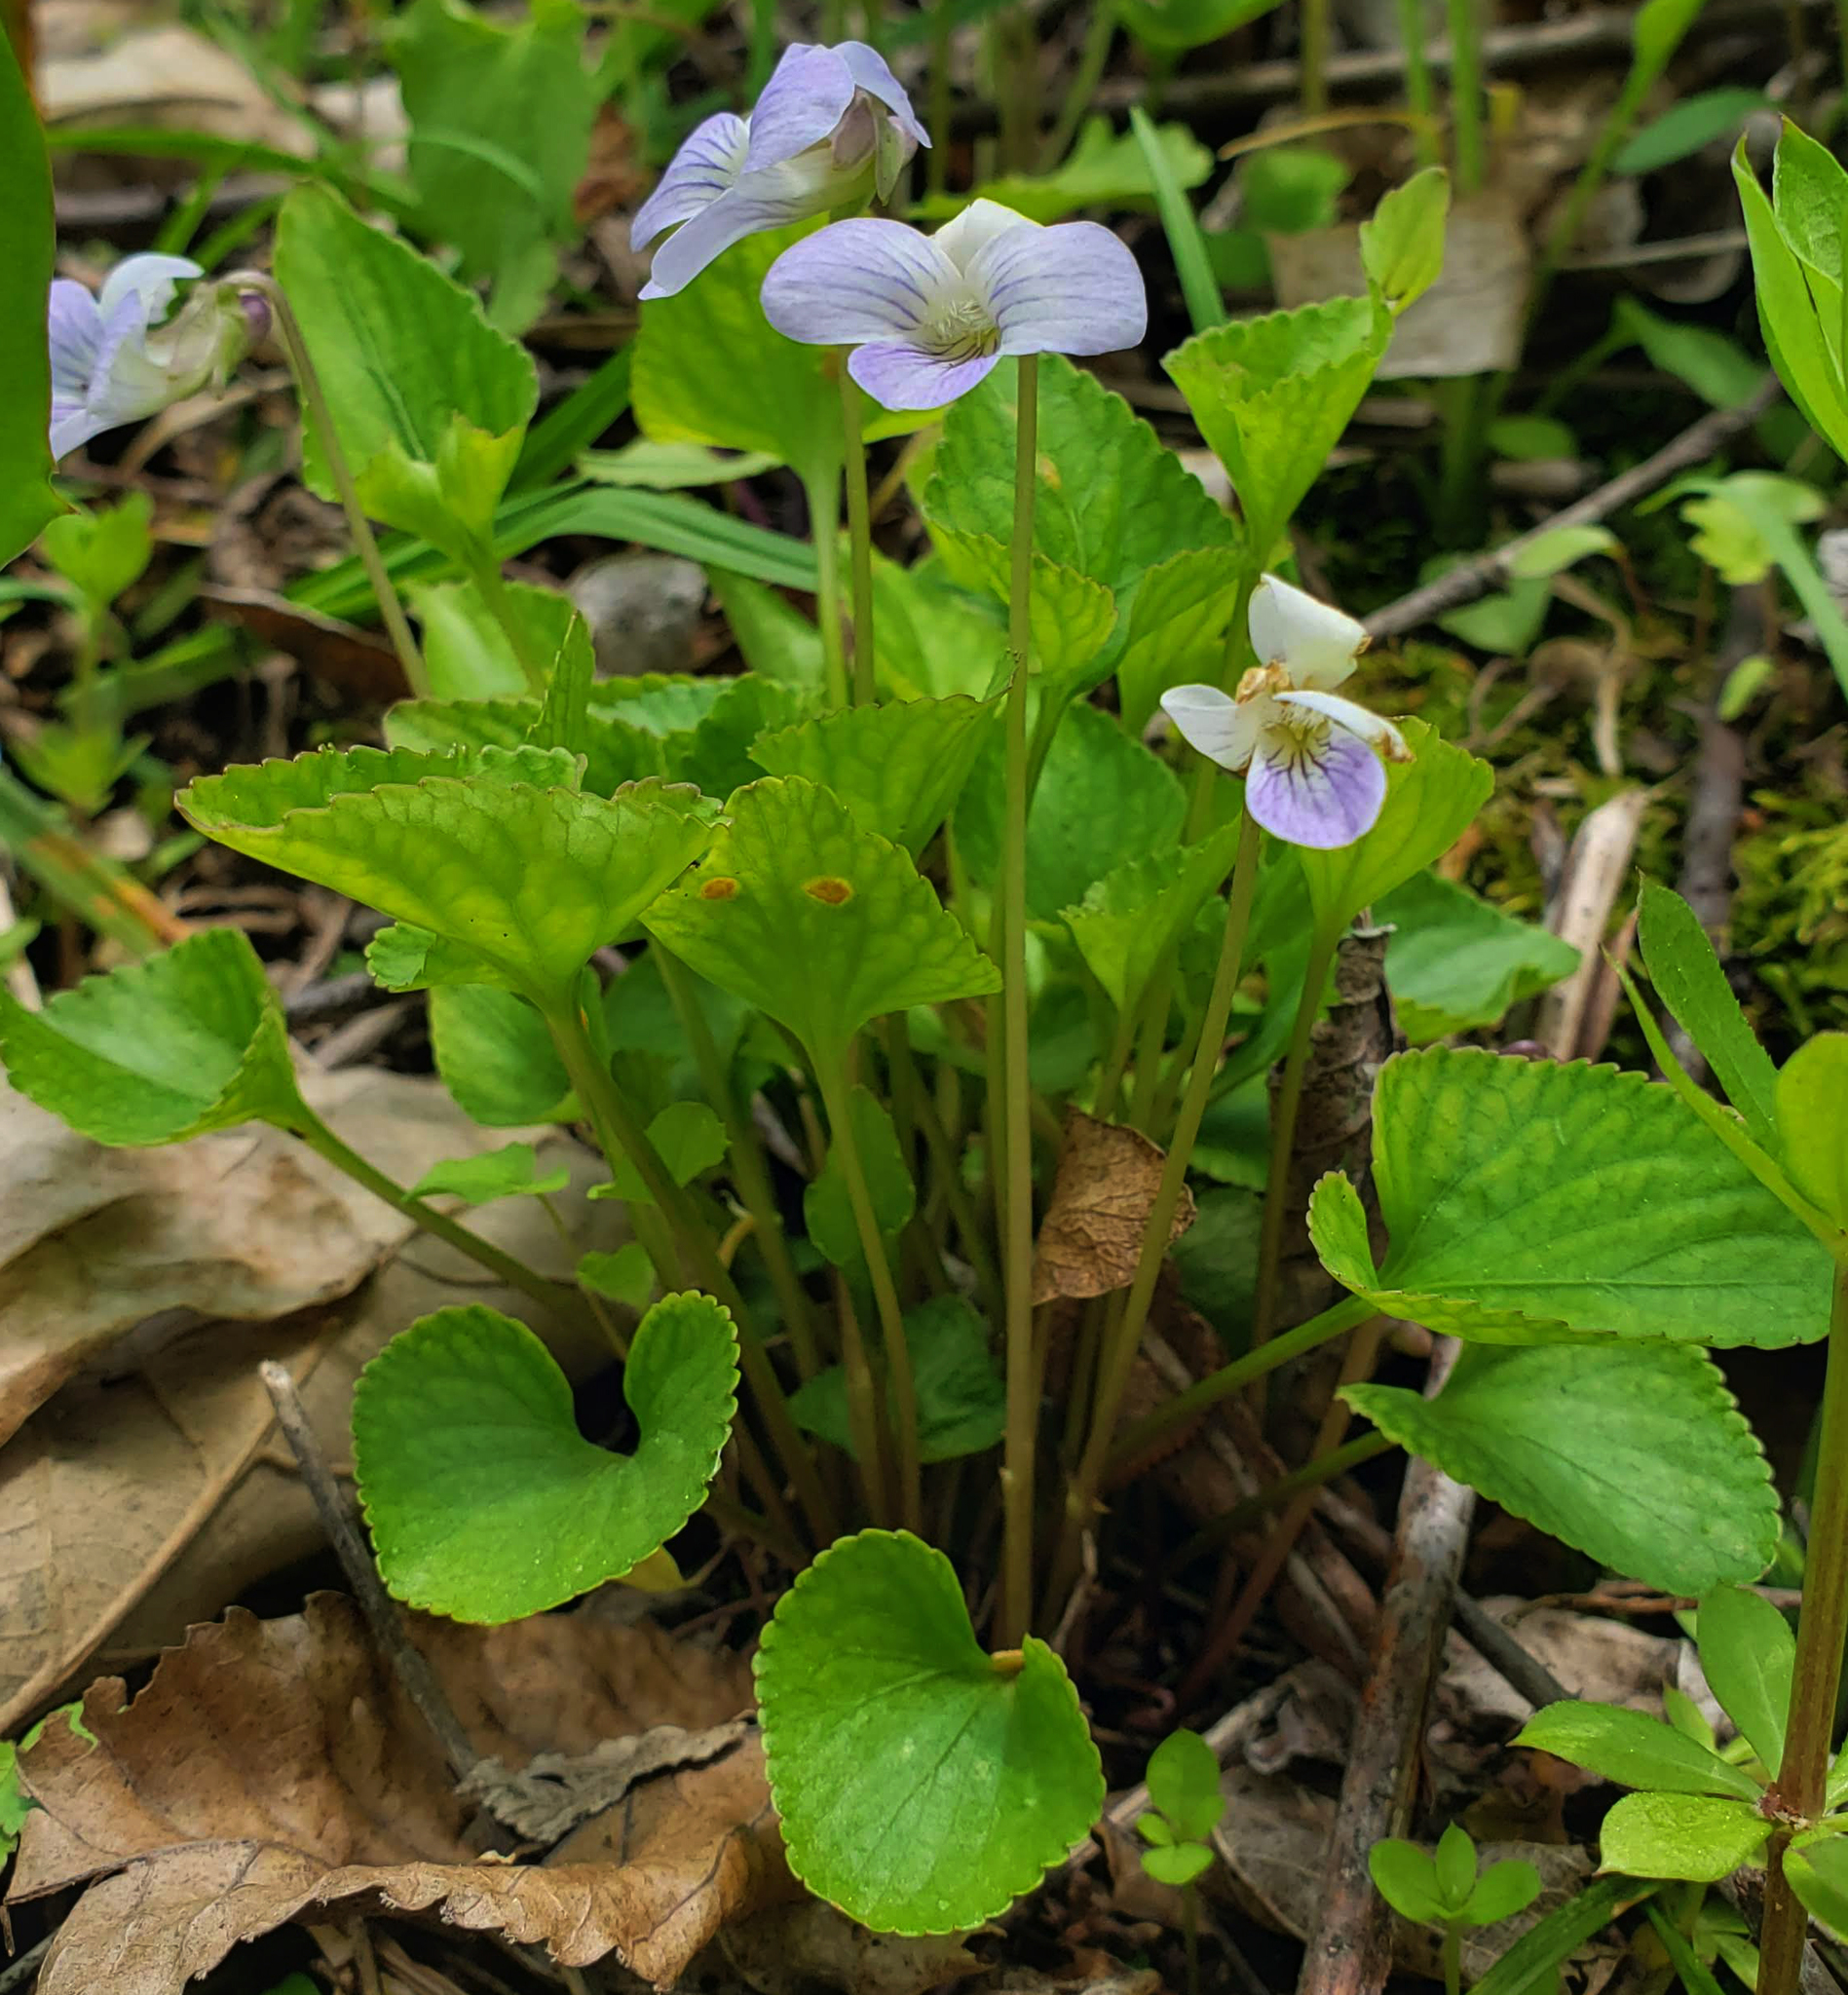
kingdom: Plantae
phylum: Tracheophyta
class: Magnoliopsida
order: Malpighiales
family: Violaceae
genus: Viola
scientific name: Viola labradorica
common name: Labrador violet
